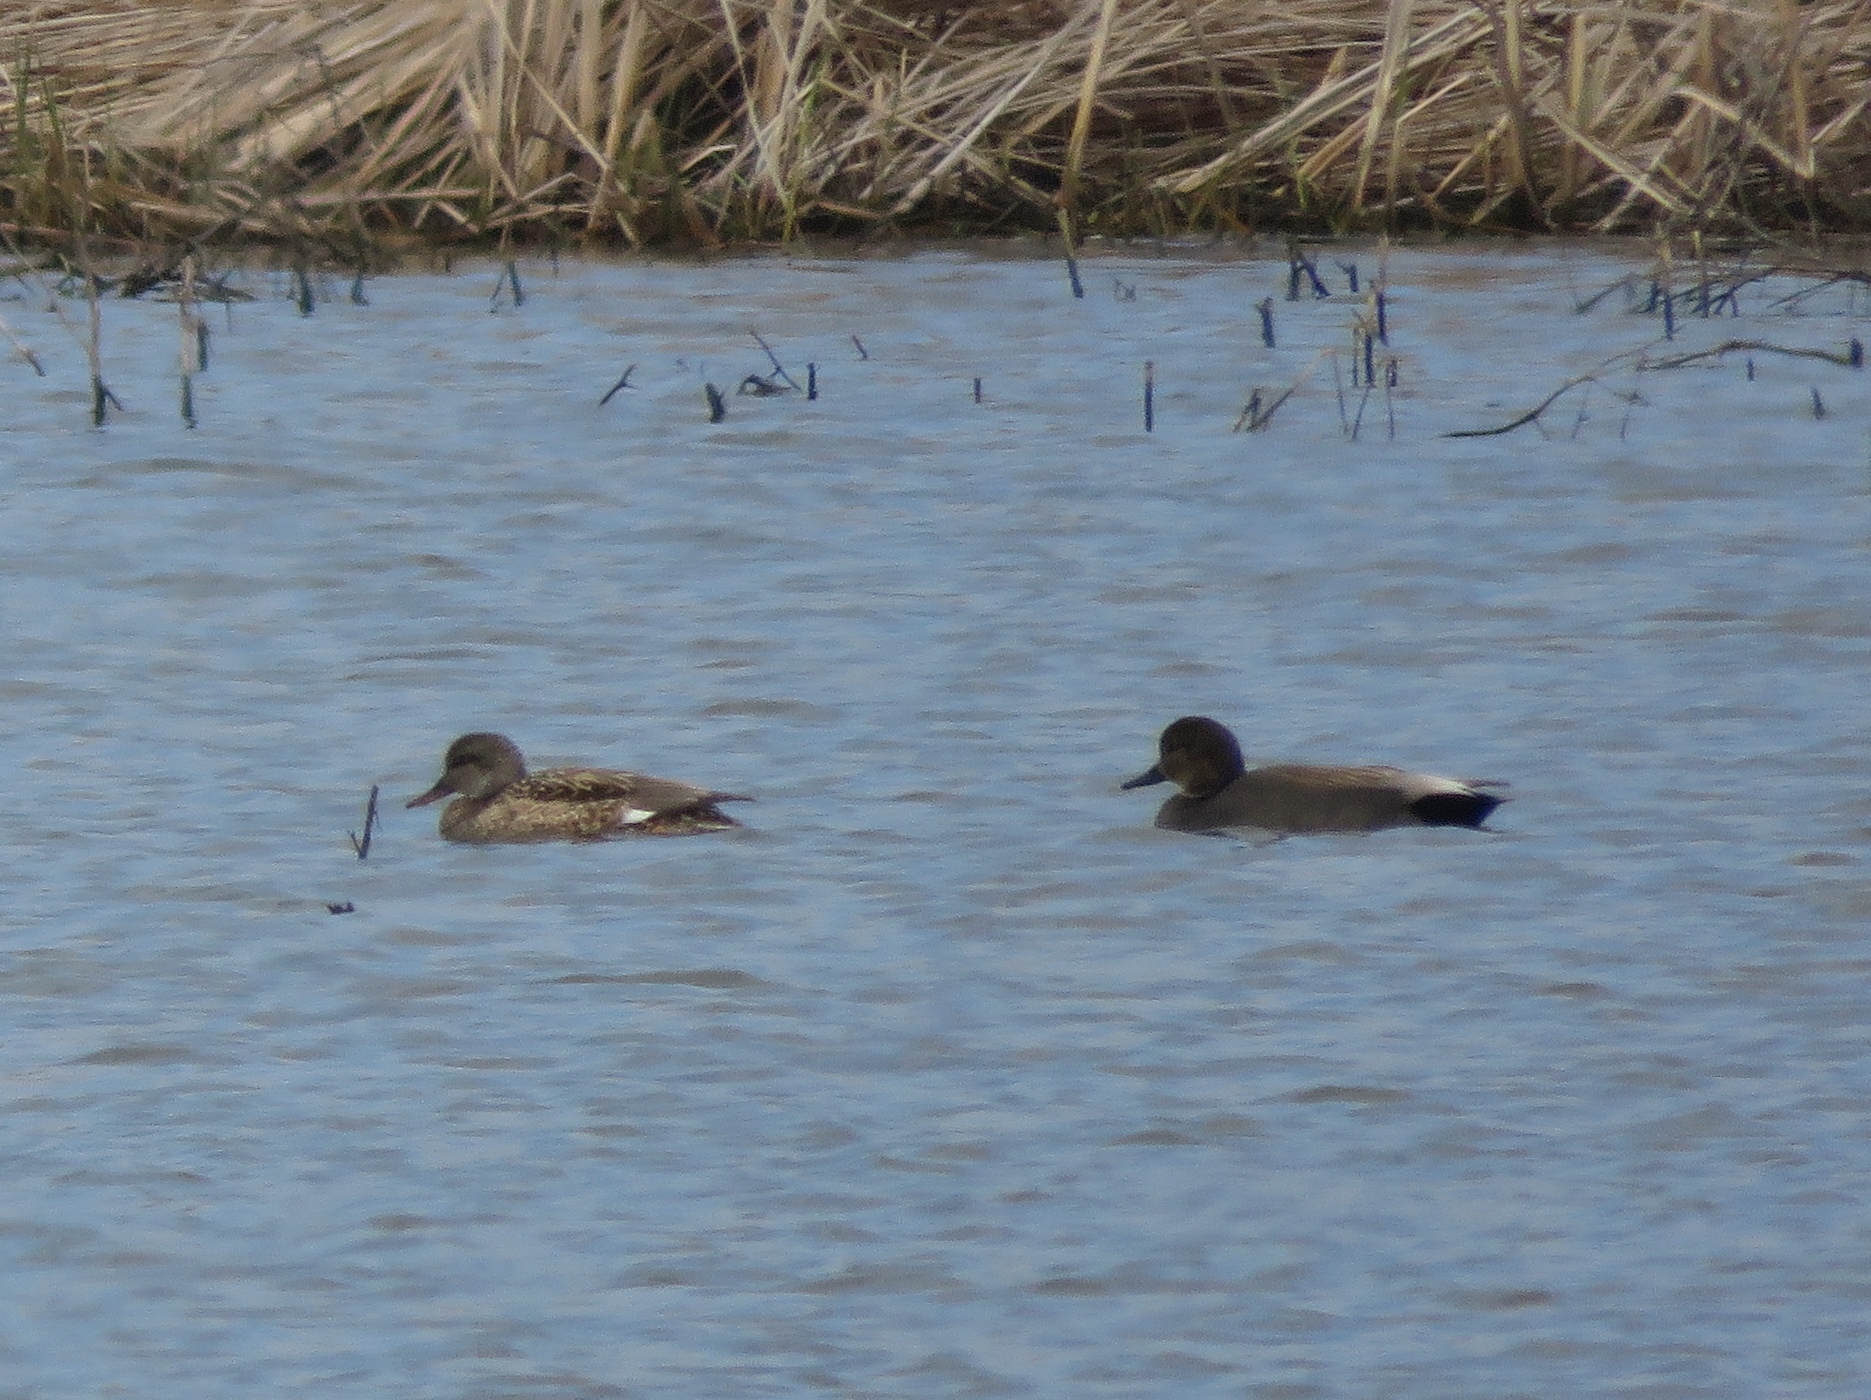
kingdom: Animalia
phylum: Chordata
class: Aves
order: Anseriformes
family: Anatidae
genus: Mareca
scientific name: Mareca strepera
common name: Gadwall
